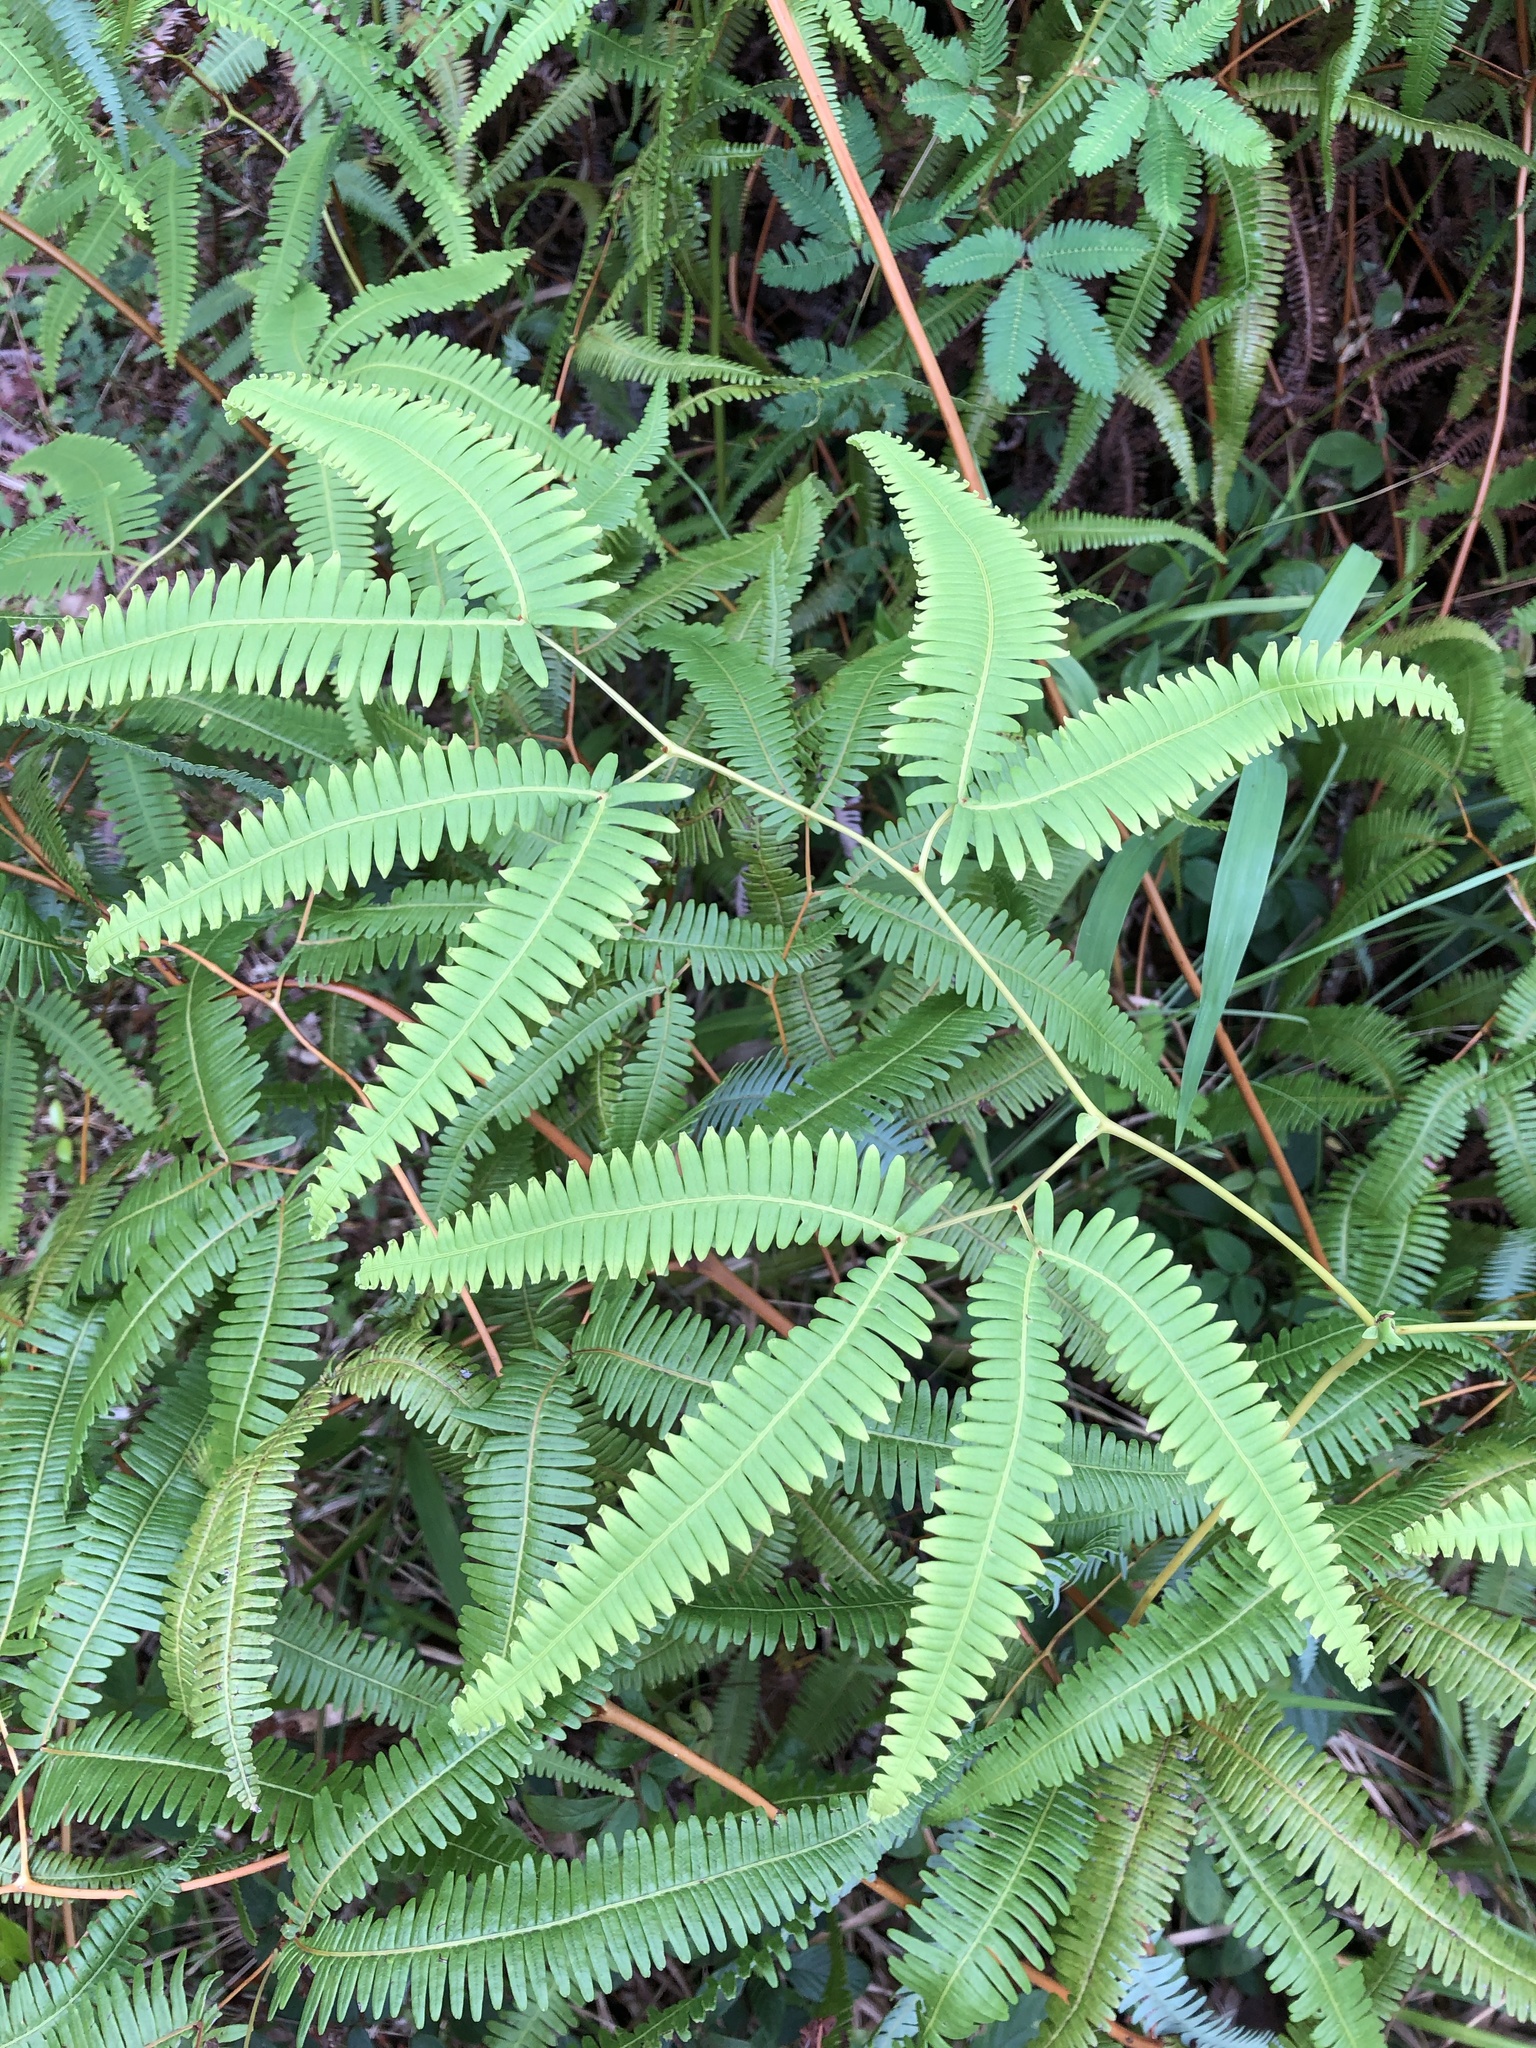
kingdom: Plantae
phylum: Tracheophyta
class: Polypodiopsida
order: Gleicheniales
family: Gleicheniaceae
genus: Gleichenella
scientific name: Gleichenella pectinata
